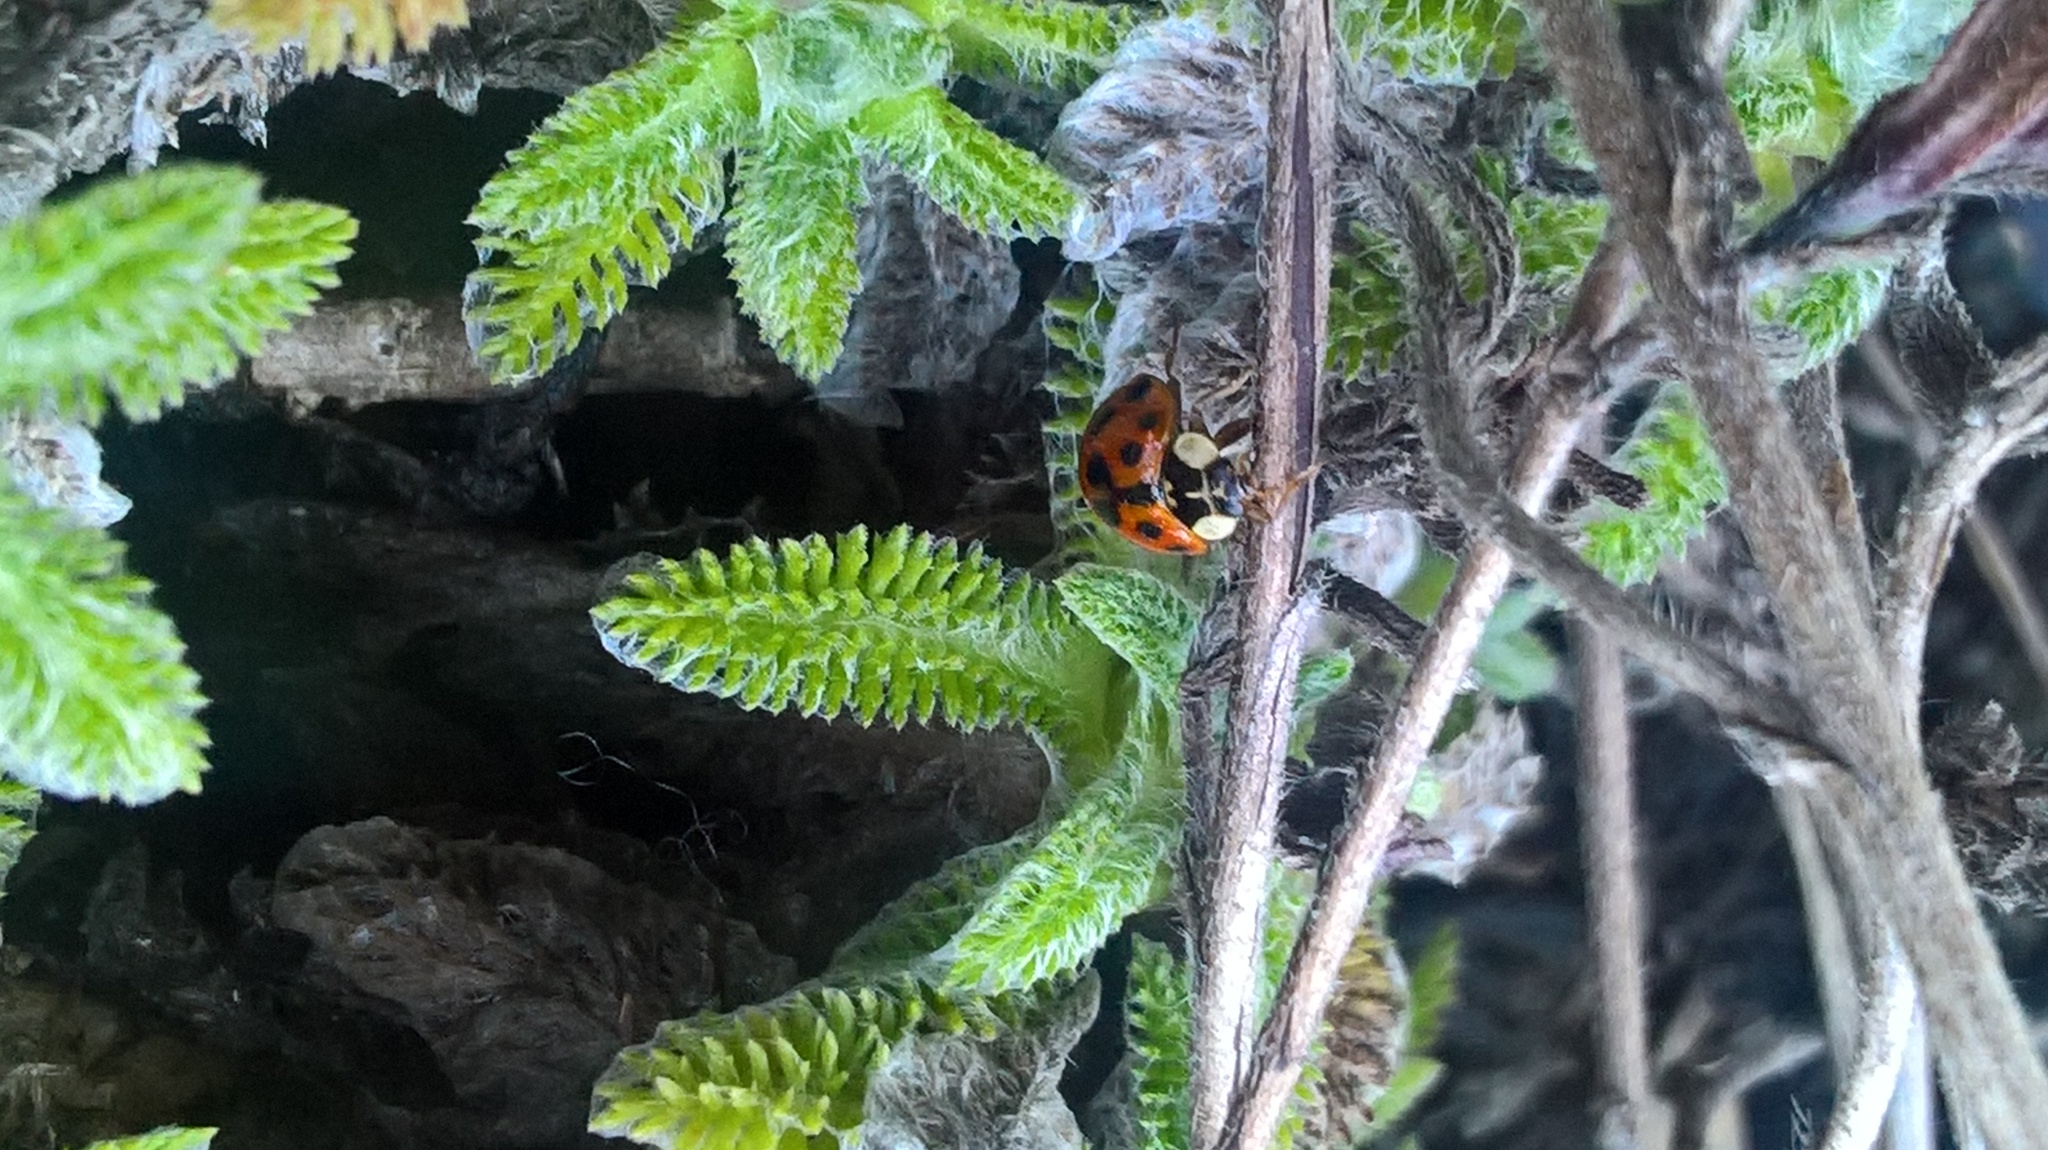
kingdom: Animalia
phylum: Arthropoda
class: Insecta
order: Coleoptera
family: Coccinellidae
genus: Harmonia
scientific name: Harmonia axyridis
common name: Harlequin ladybird
